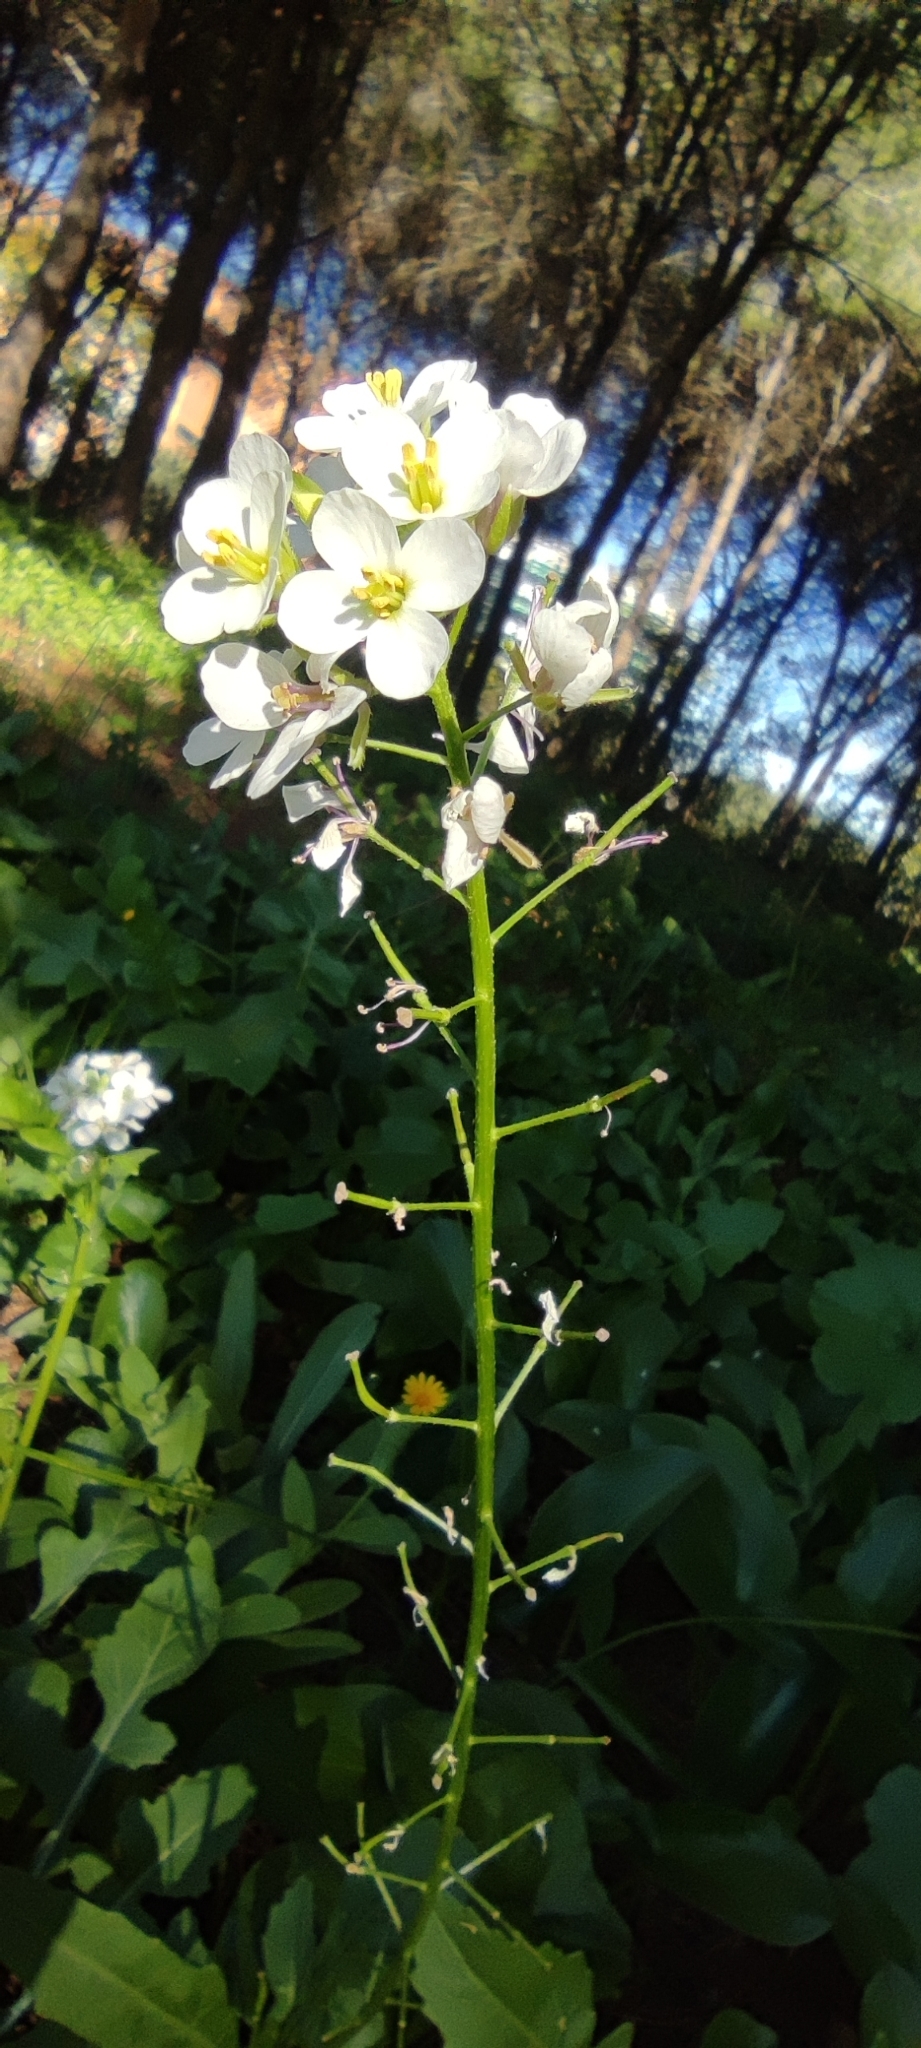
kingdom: Plantae
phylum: Tracheophyta
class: Magnoliopsida
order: Brassicales
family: Brassicaceae
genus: Diplotaxis
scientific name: Diplotaxis erucoides
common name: White rocket
